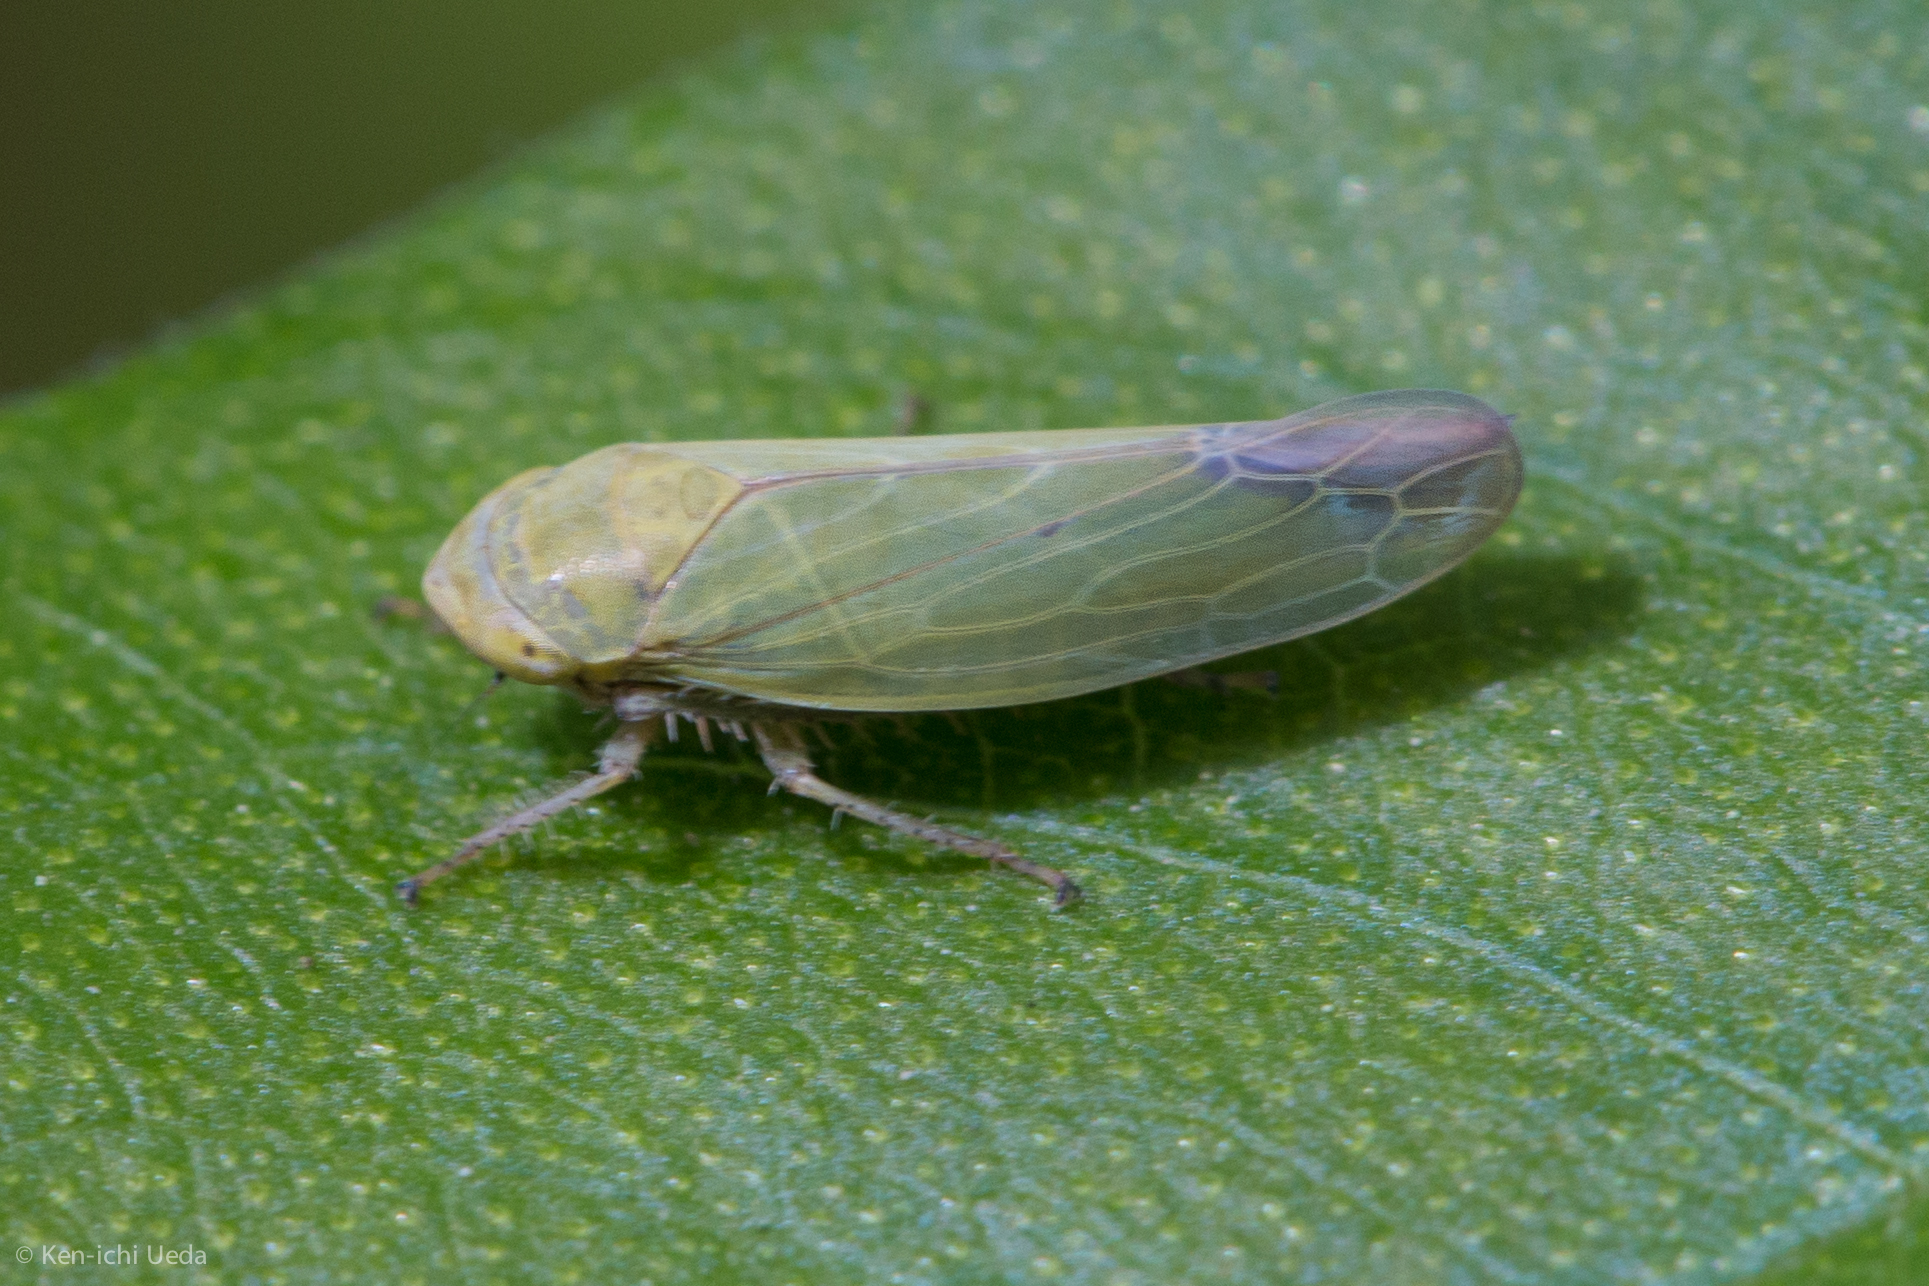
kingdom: Animalia
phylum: Arthropoda
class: Insecta
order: Hemiptera
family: Cicadellidae
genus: Thamnotettix
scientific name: Thamnotettix zelleri
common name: Leafhopper
